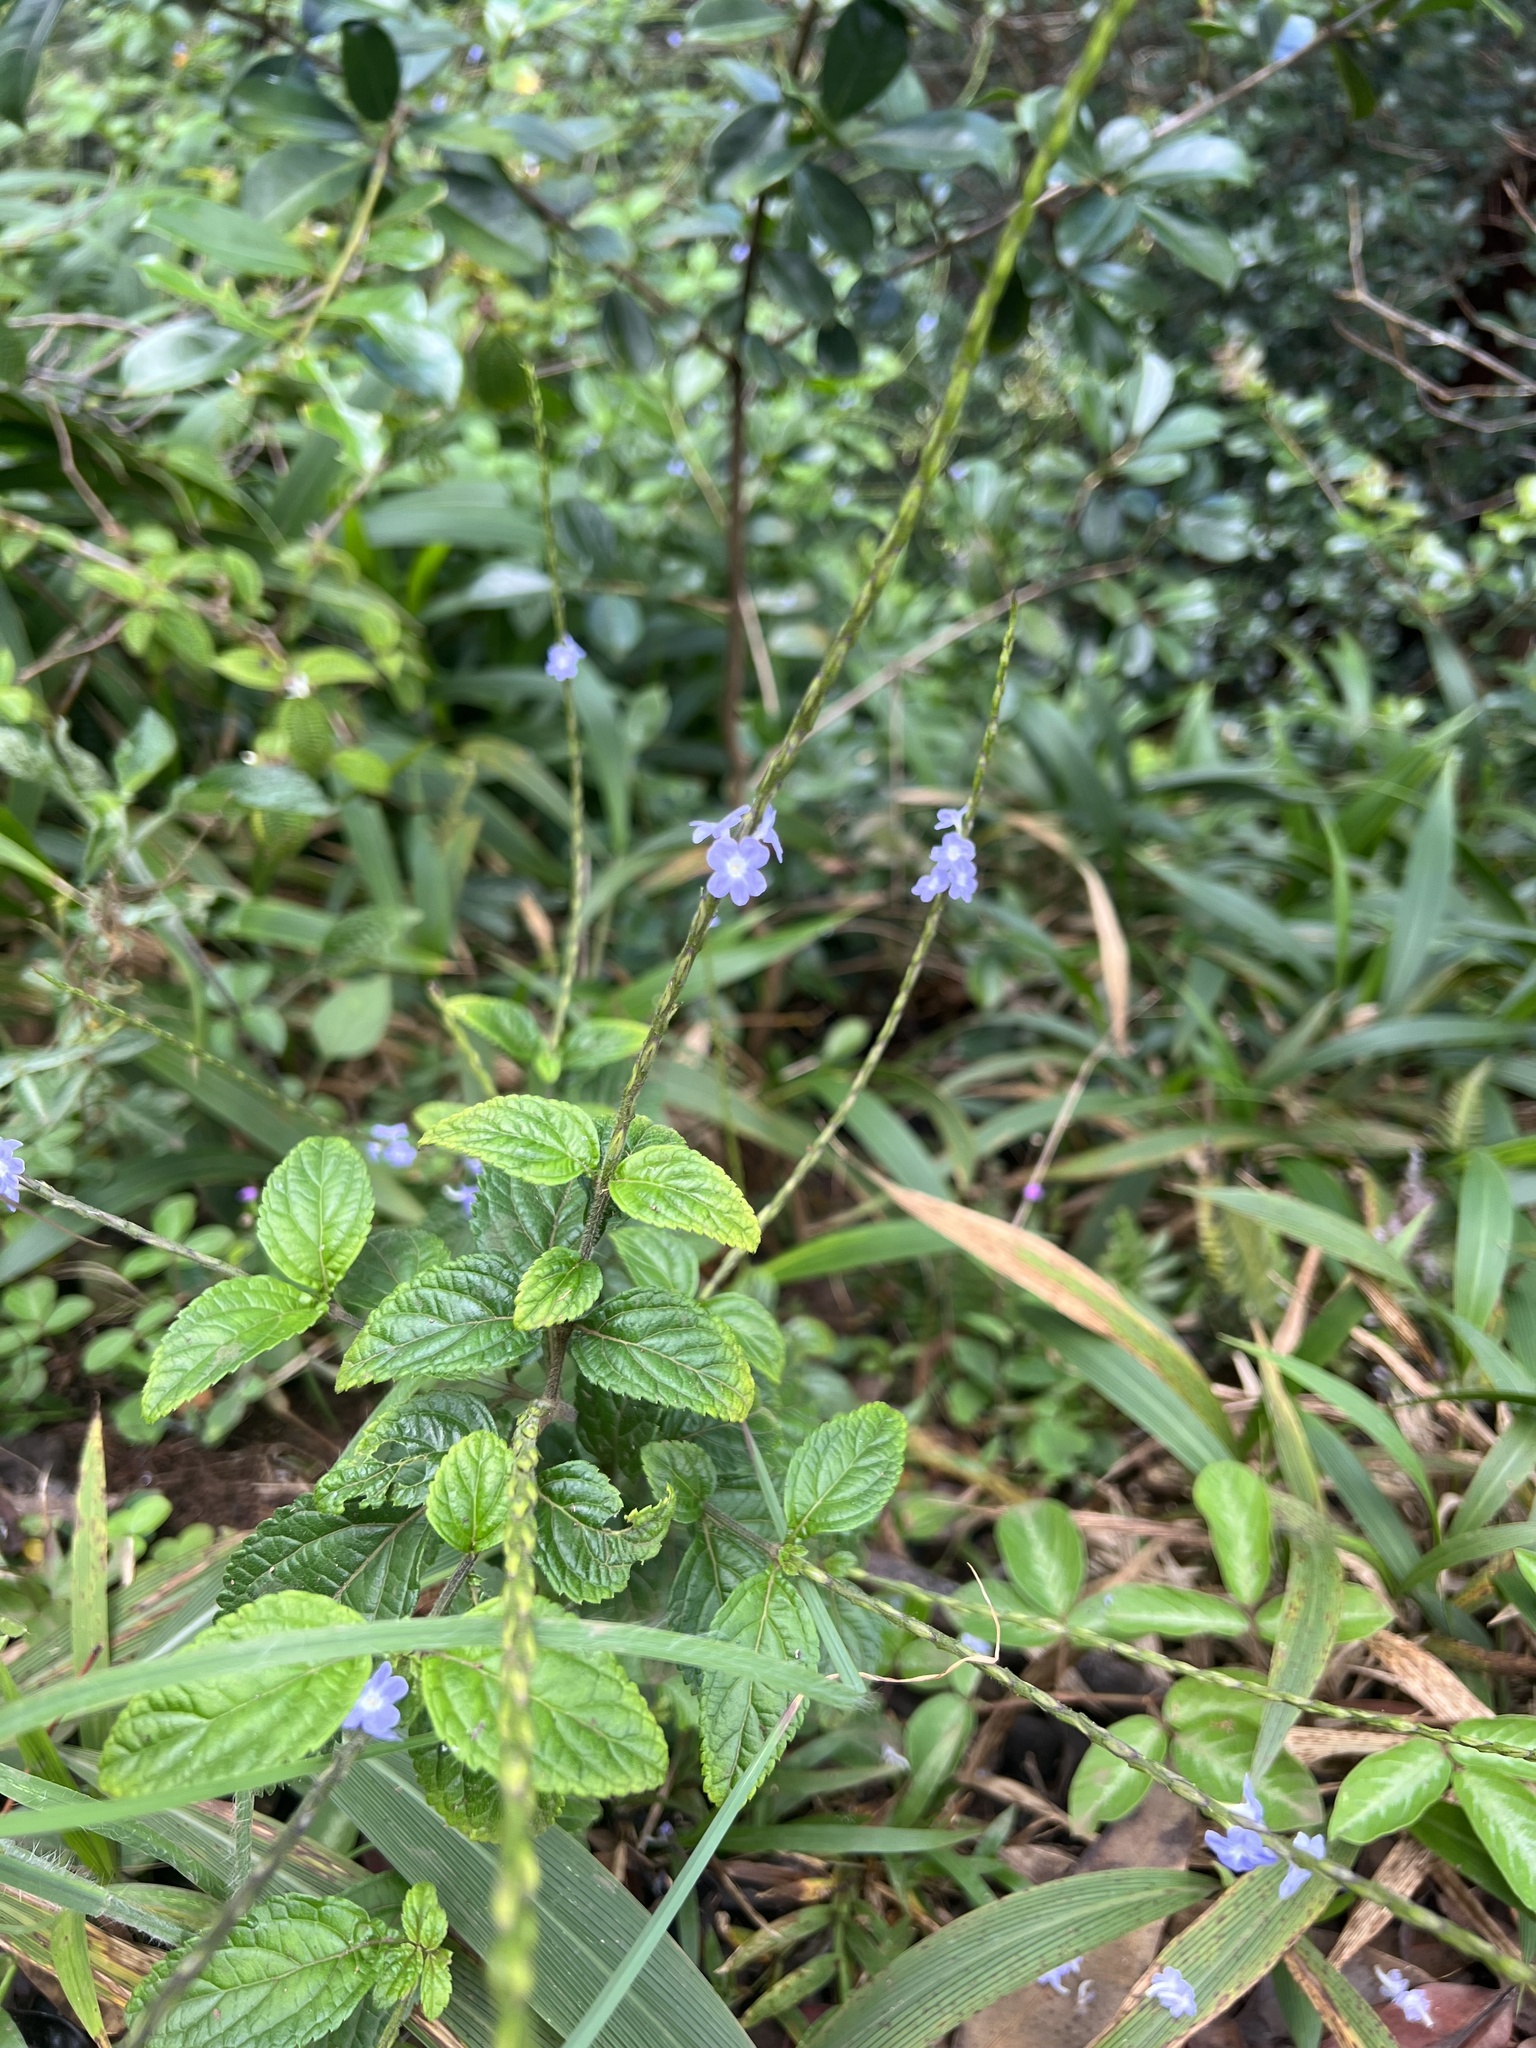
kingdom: Plantae
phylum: Tracheophyta
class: Magnoliopsida
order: Lamiales
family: Verbenaceae
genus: Stachytarpheta
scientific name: Stachytarpheta cayennensis
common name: Cayenne porterweed
